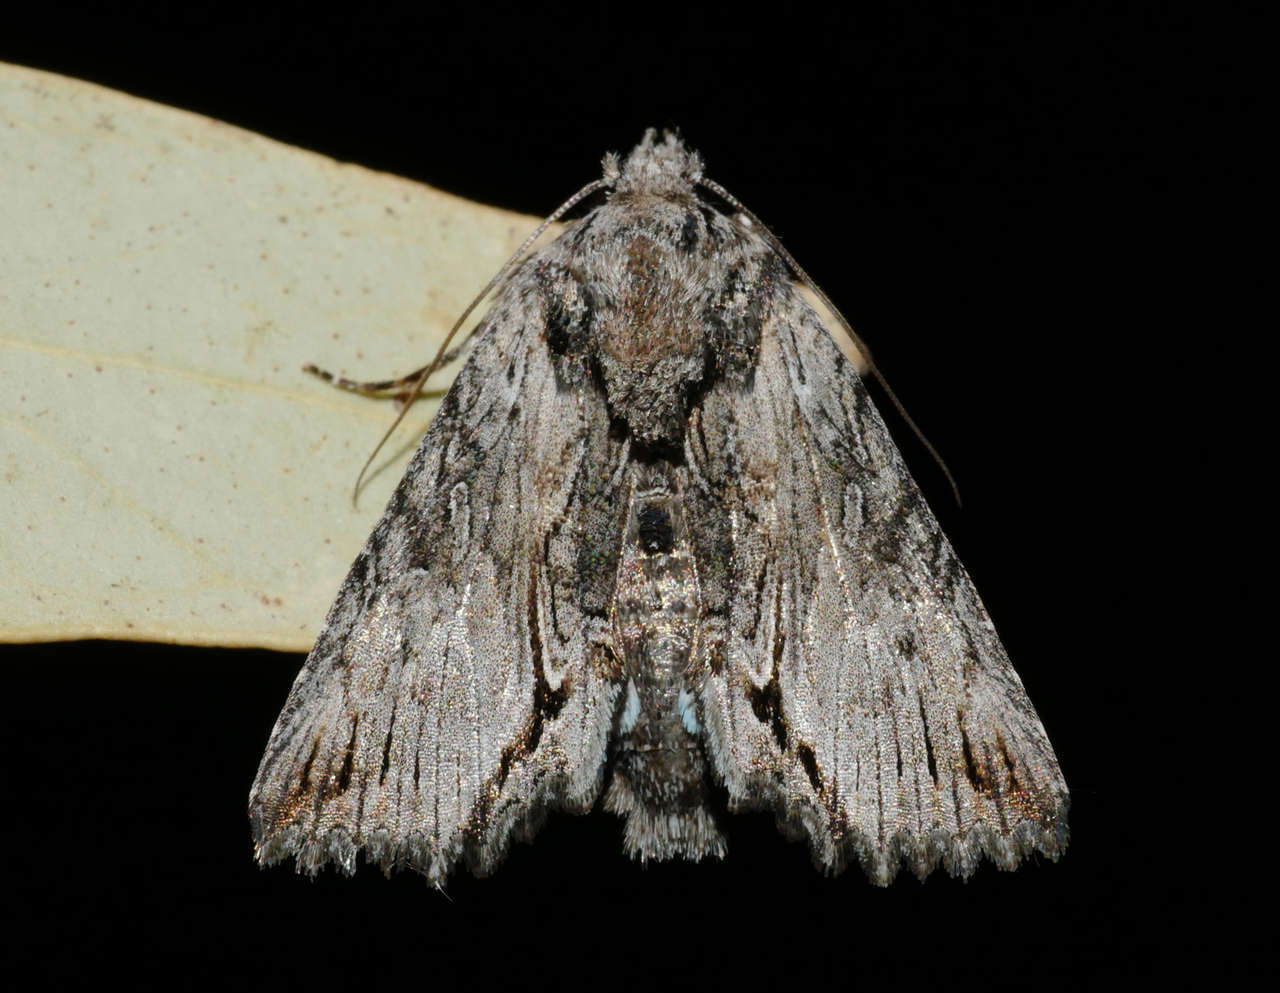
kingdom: Animalia
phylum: Arthropoda
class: Insecta
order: Lepidoptera
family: Noctuidae
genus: Buciara
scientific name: Buciara bipartita
